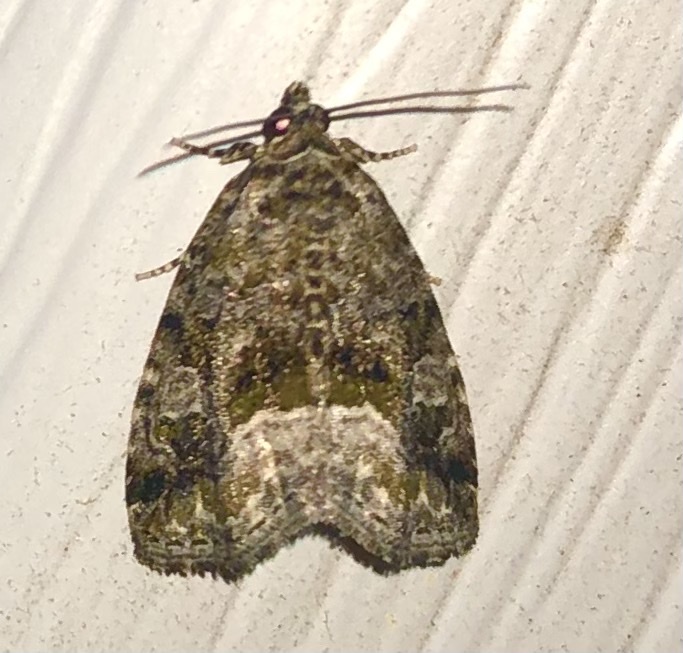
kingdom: Animalia
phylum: Arthropoda
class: Insecta
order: Lepidoptera
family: Noctuidae
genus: Protodeltote
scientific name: Protodeltote muscosula
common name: Large mossy glyph
